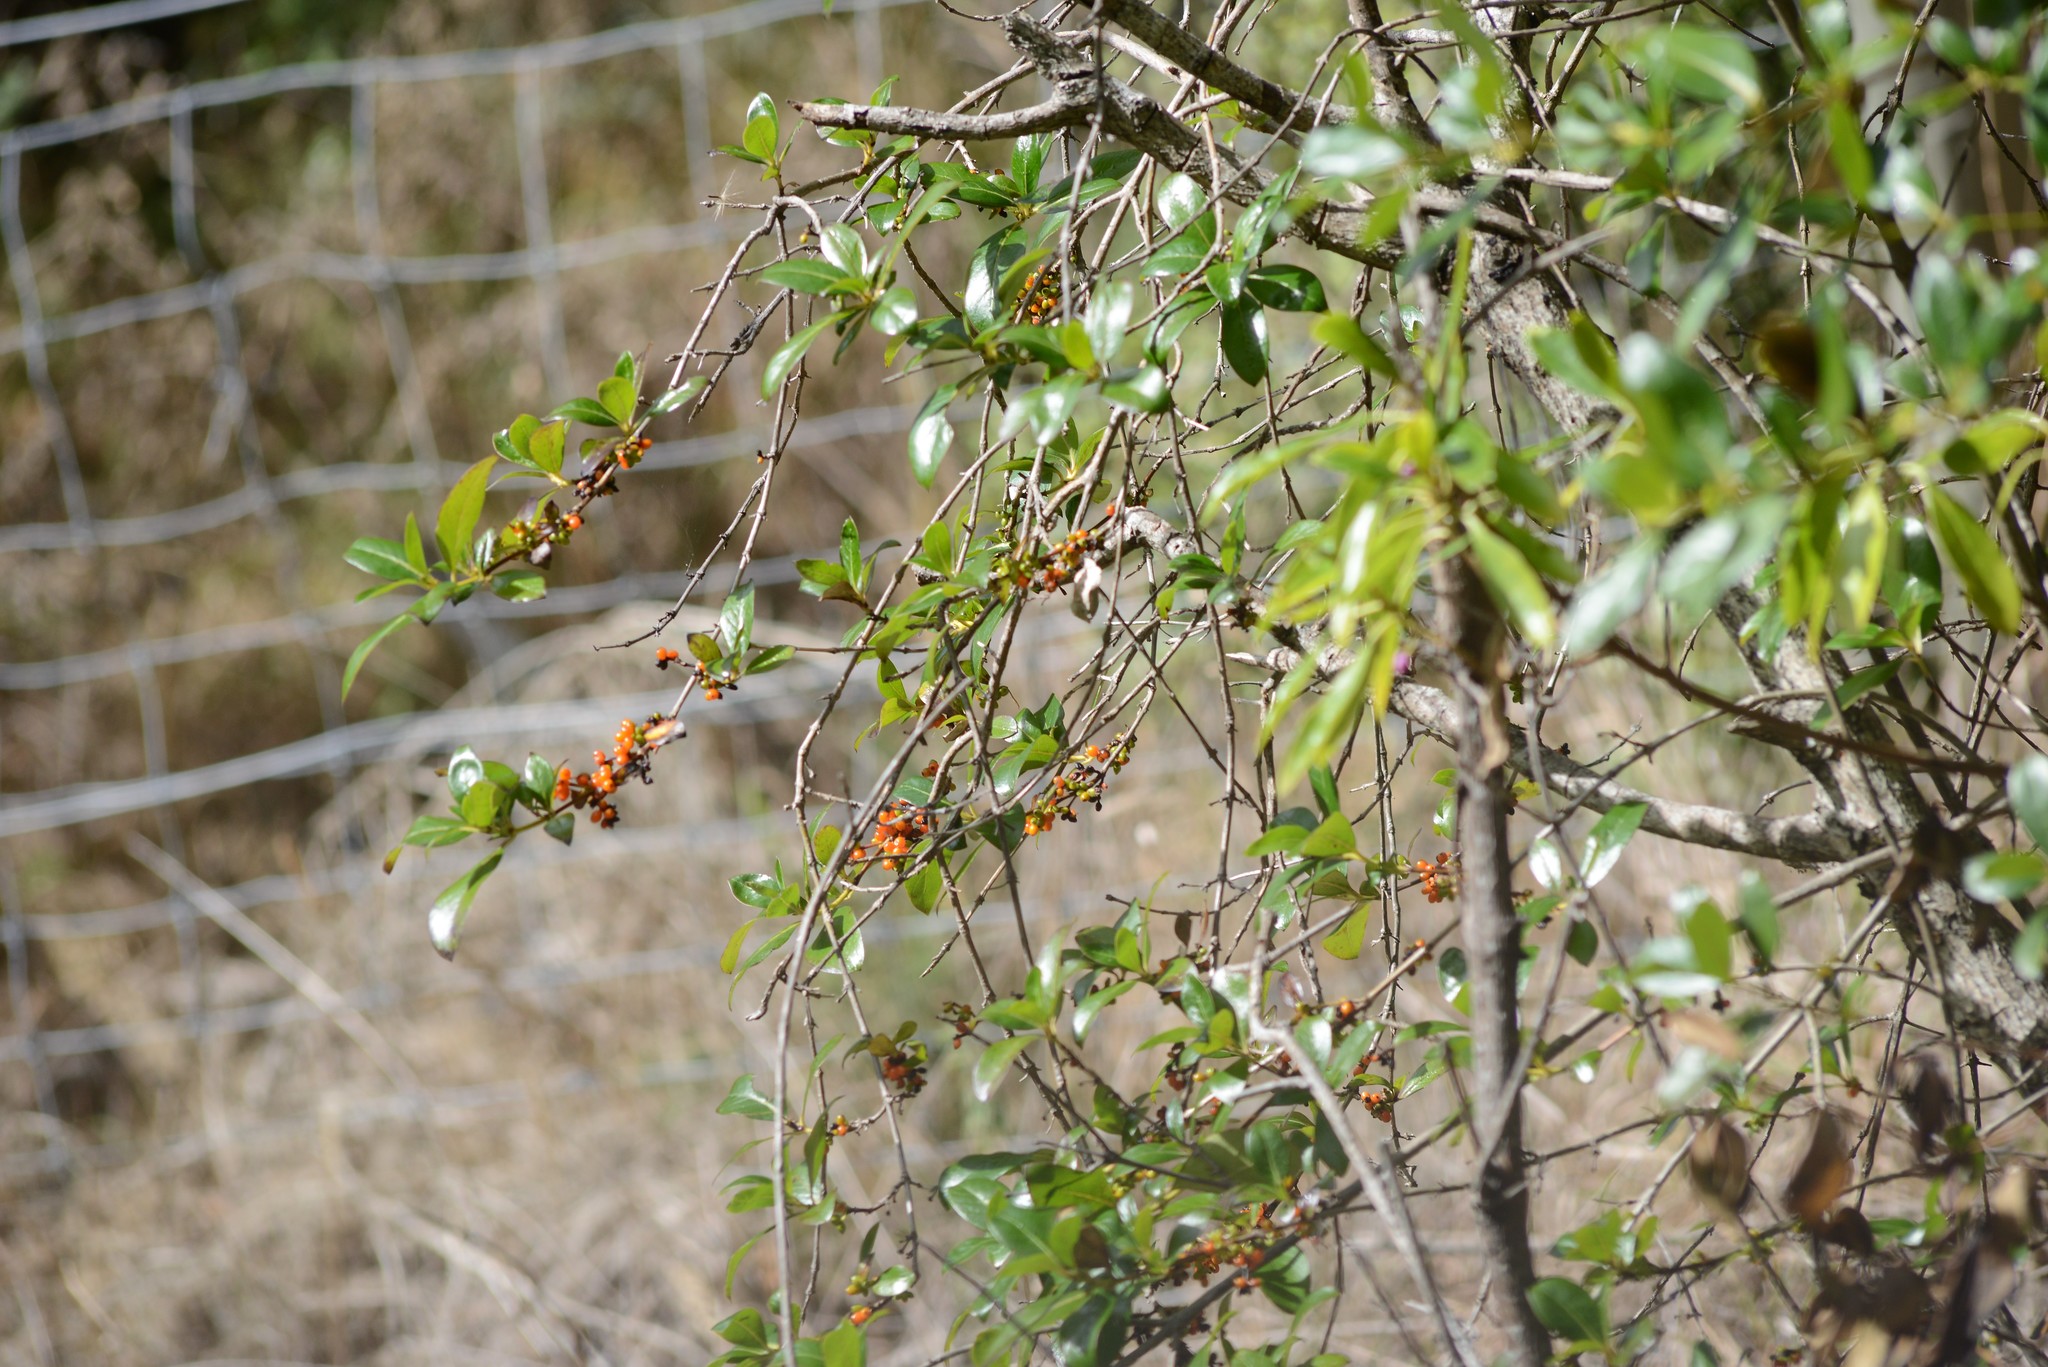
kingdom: Plantae
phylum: Tracheophyta
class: Magnoliopsida
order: Gentianales
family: Rubiaceae
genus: Coprosma
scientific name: Coprosma robusta
